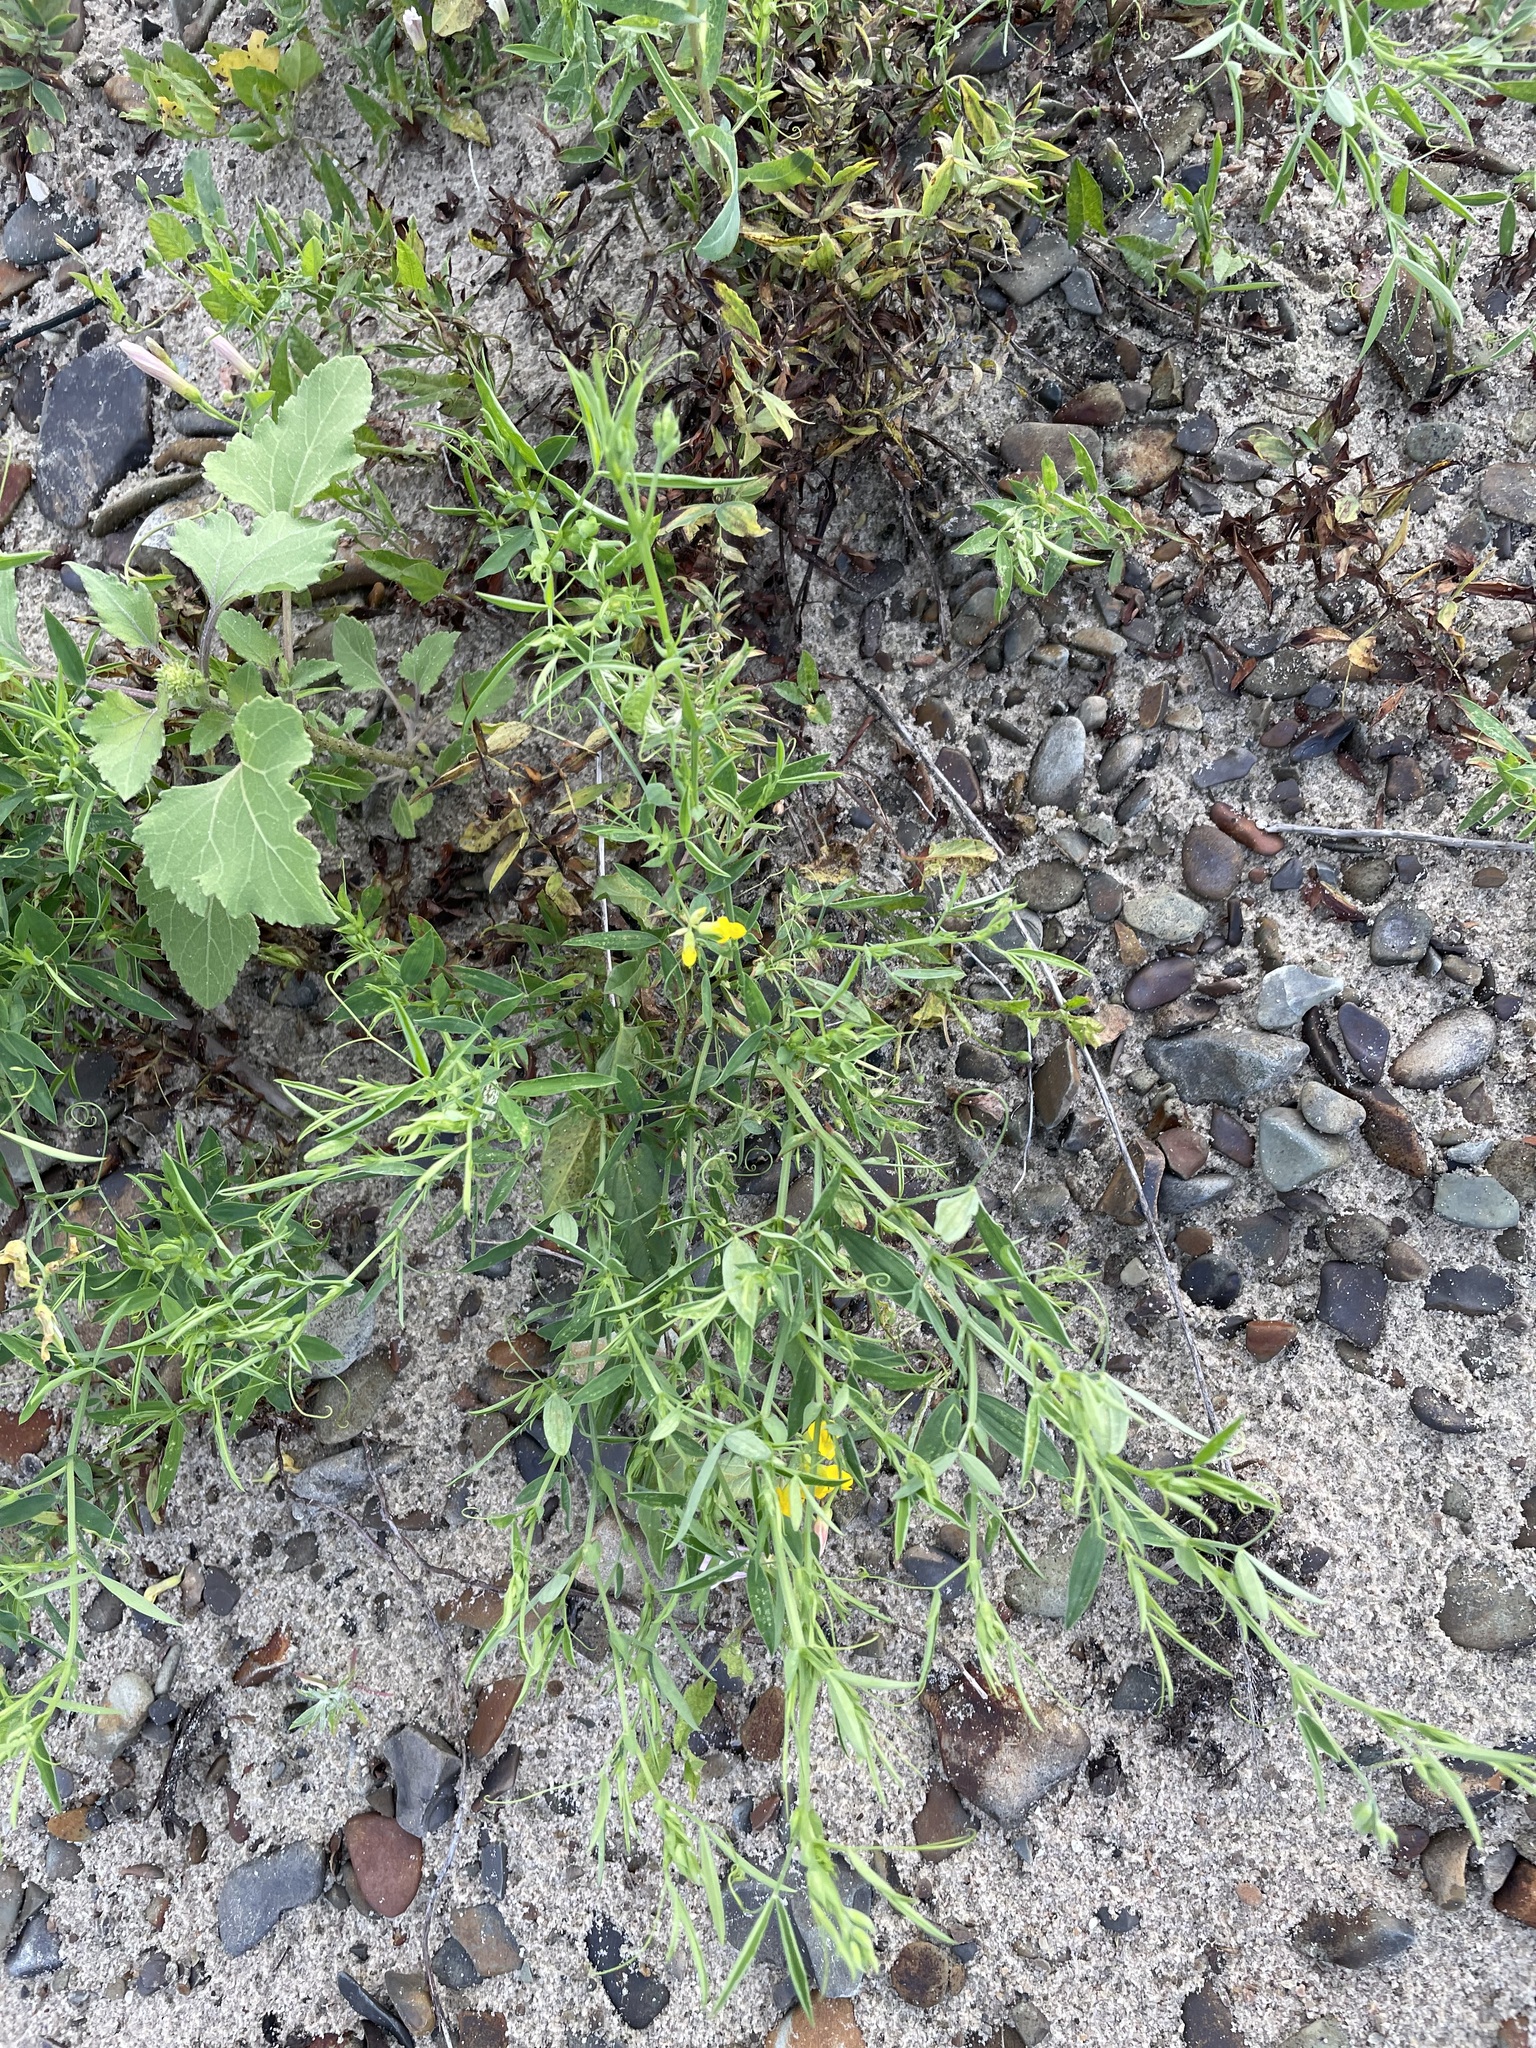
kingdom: Plantae
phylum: Tracheophyta
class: Magnoliopsida
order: Fabales
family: Fabaceae
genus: Lathyrus
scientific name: Lathyrus pratensis
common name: Meadow vetchling
